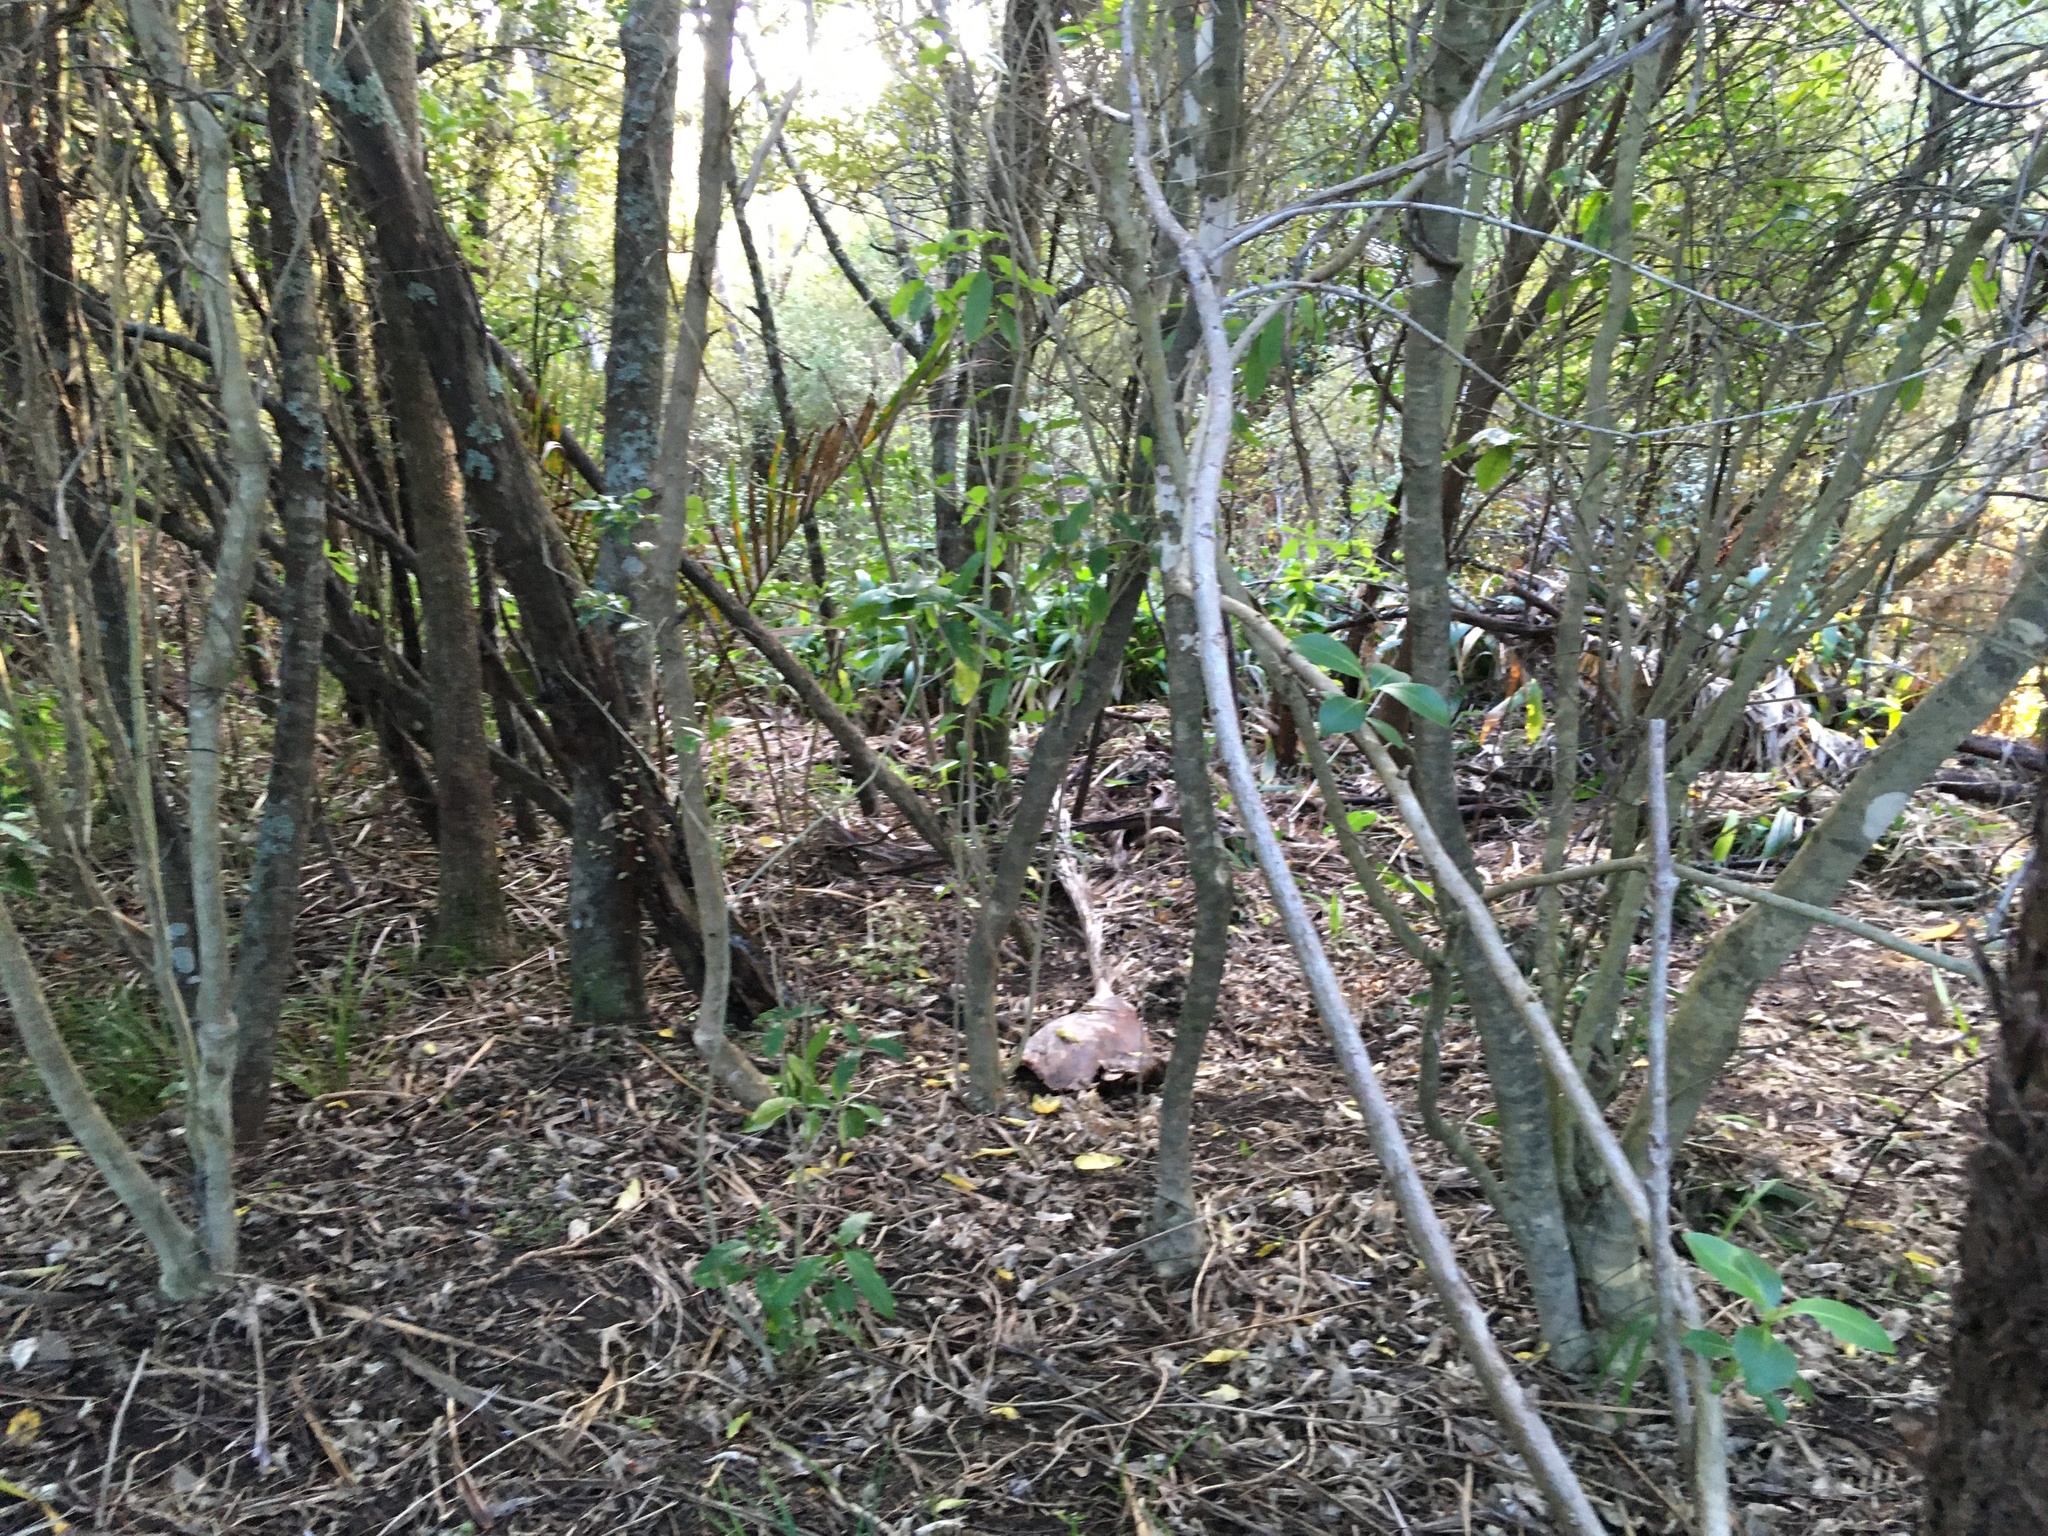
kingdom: Plantae
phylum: Tracheophyta
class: Magnoliopsida
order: Malpighiales
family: Violaceae
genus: Melicytus
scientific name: Melicytus ramiflorus
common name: Mahoe
